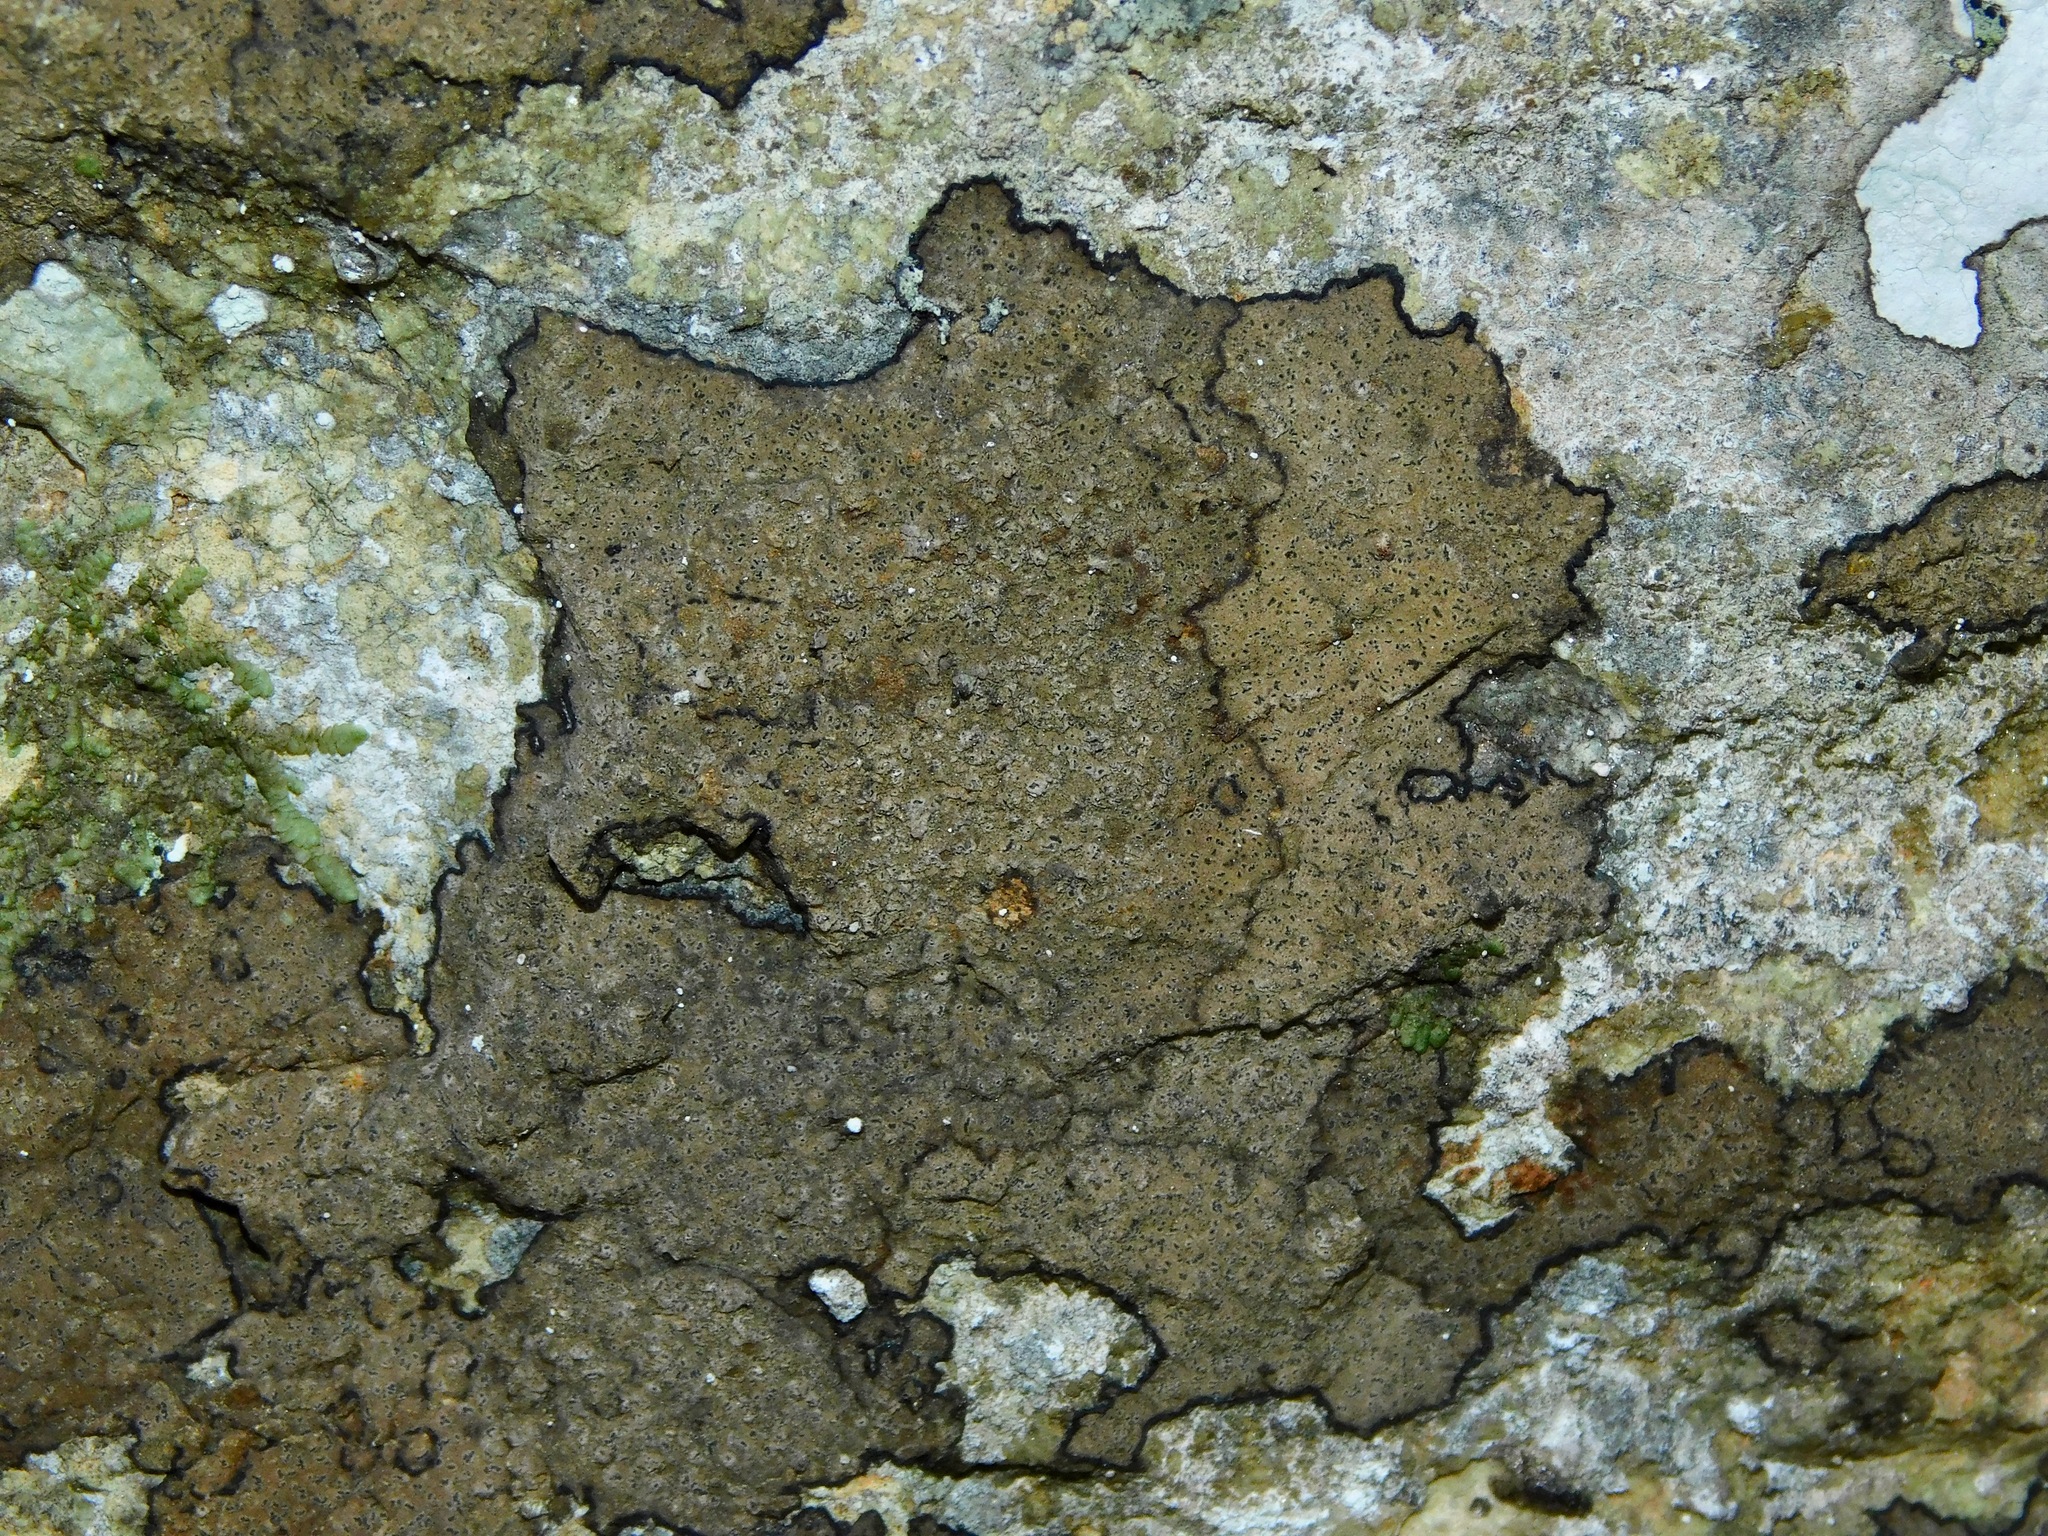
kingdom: Fungi
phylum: Ascomycota
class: Arthoniomycetes
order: Arthoniales
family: Roccellaceae
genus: Enterographa
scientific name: Enterographa hutchinsiae
